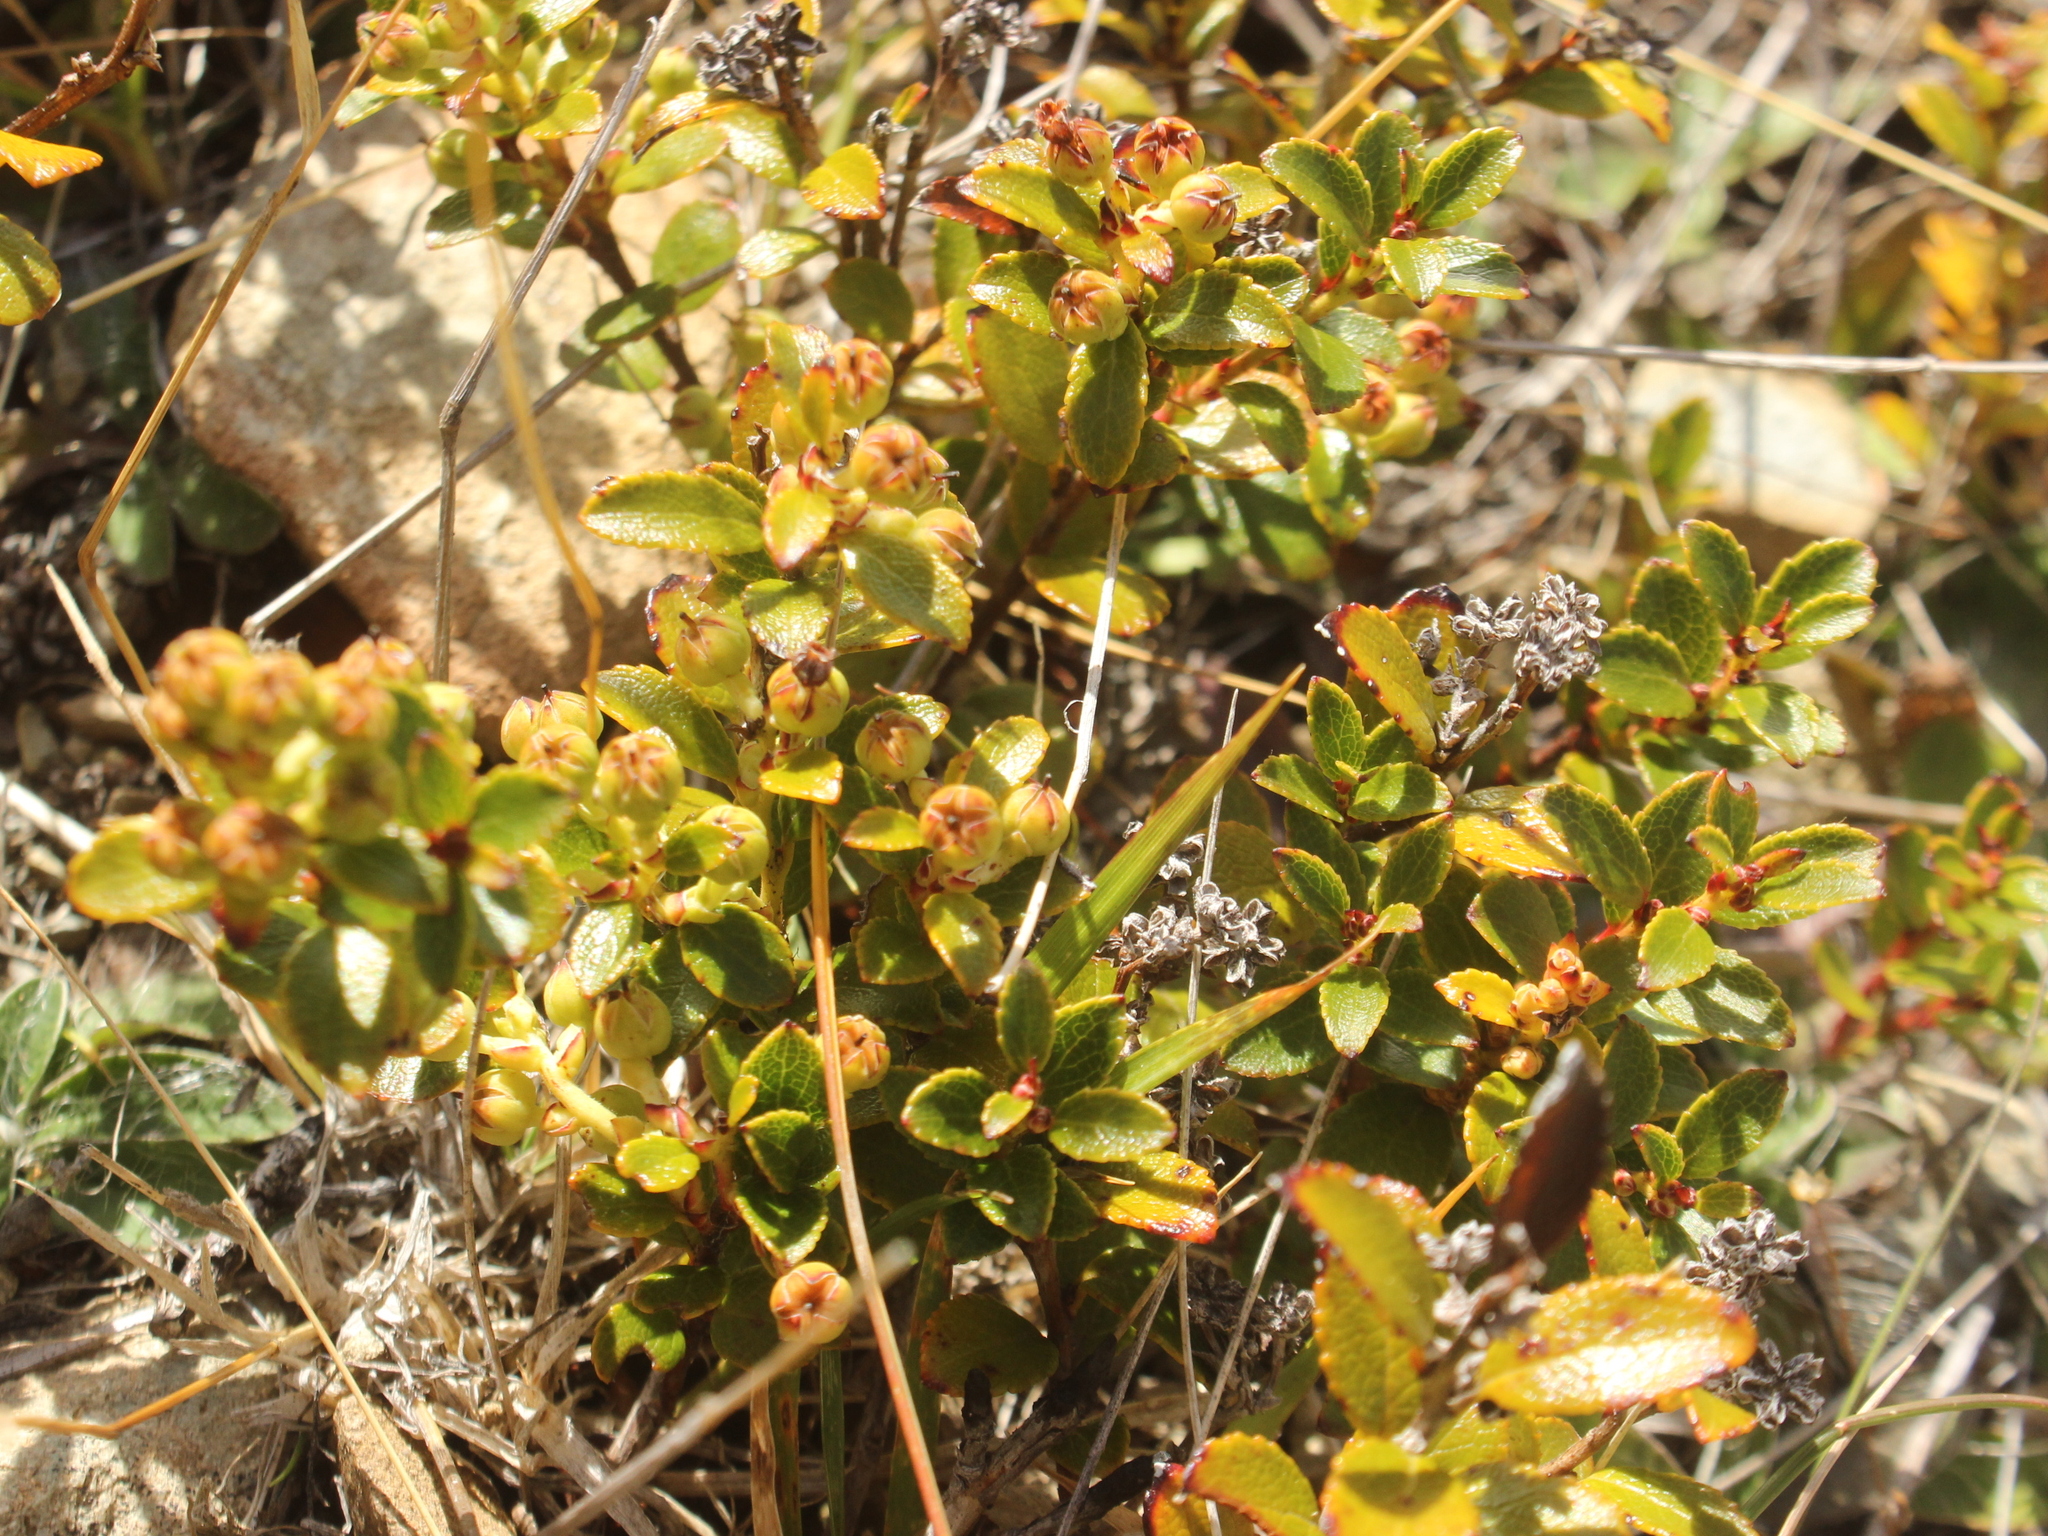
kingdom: Plantae
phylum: Tracheophyta
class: Magnoliopsida
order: Ericales
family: Ericaceae
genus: Gaultheria
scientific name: Gaultheria crassa
